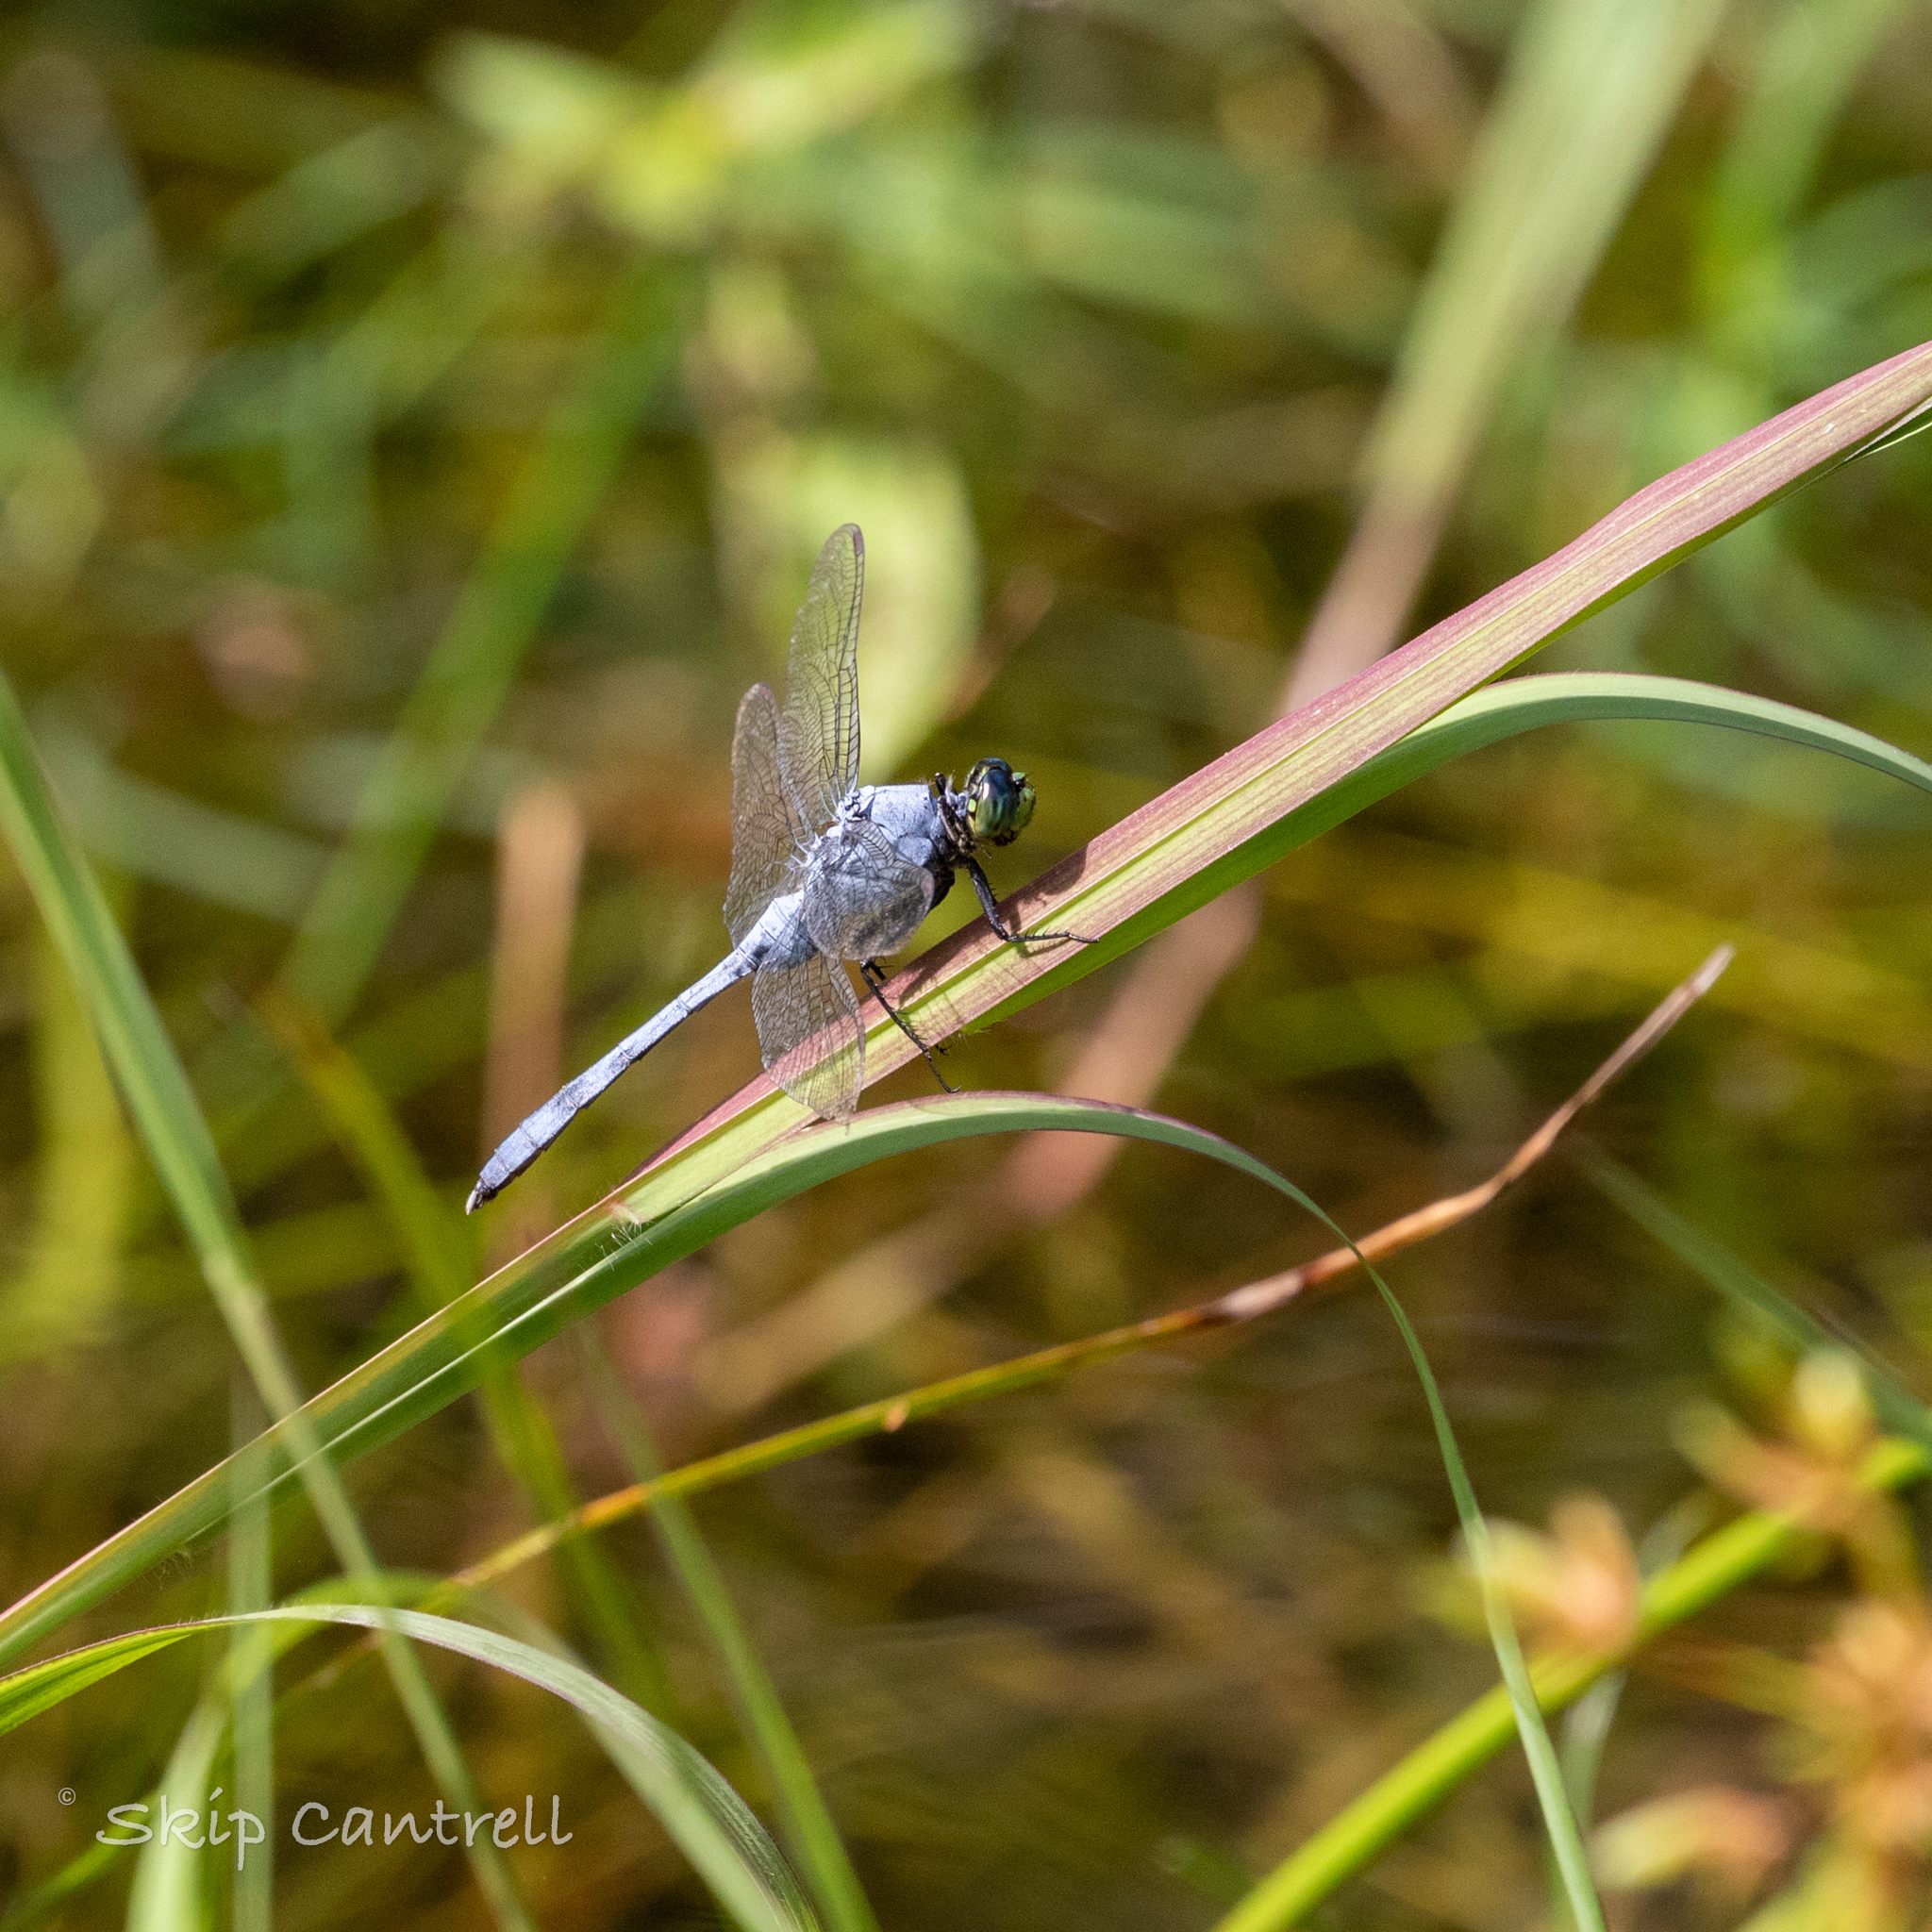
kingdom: Animalia
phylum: Arthropoda
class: Insecta
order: Odonata
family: Libellulidae
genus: Erythemis
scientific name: Erythemis simplicicollis
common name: Eastern pondhawk
